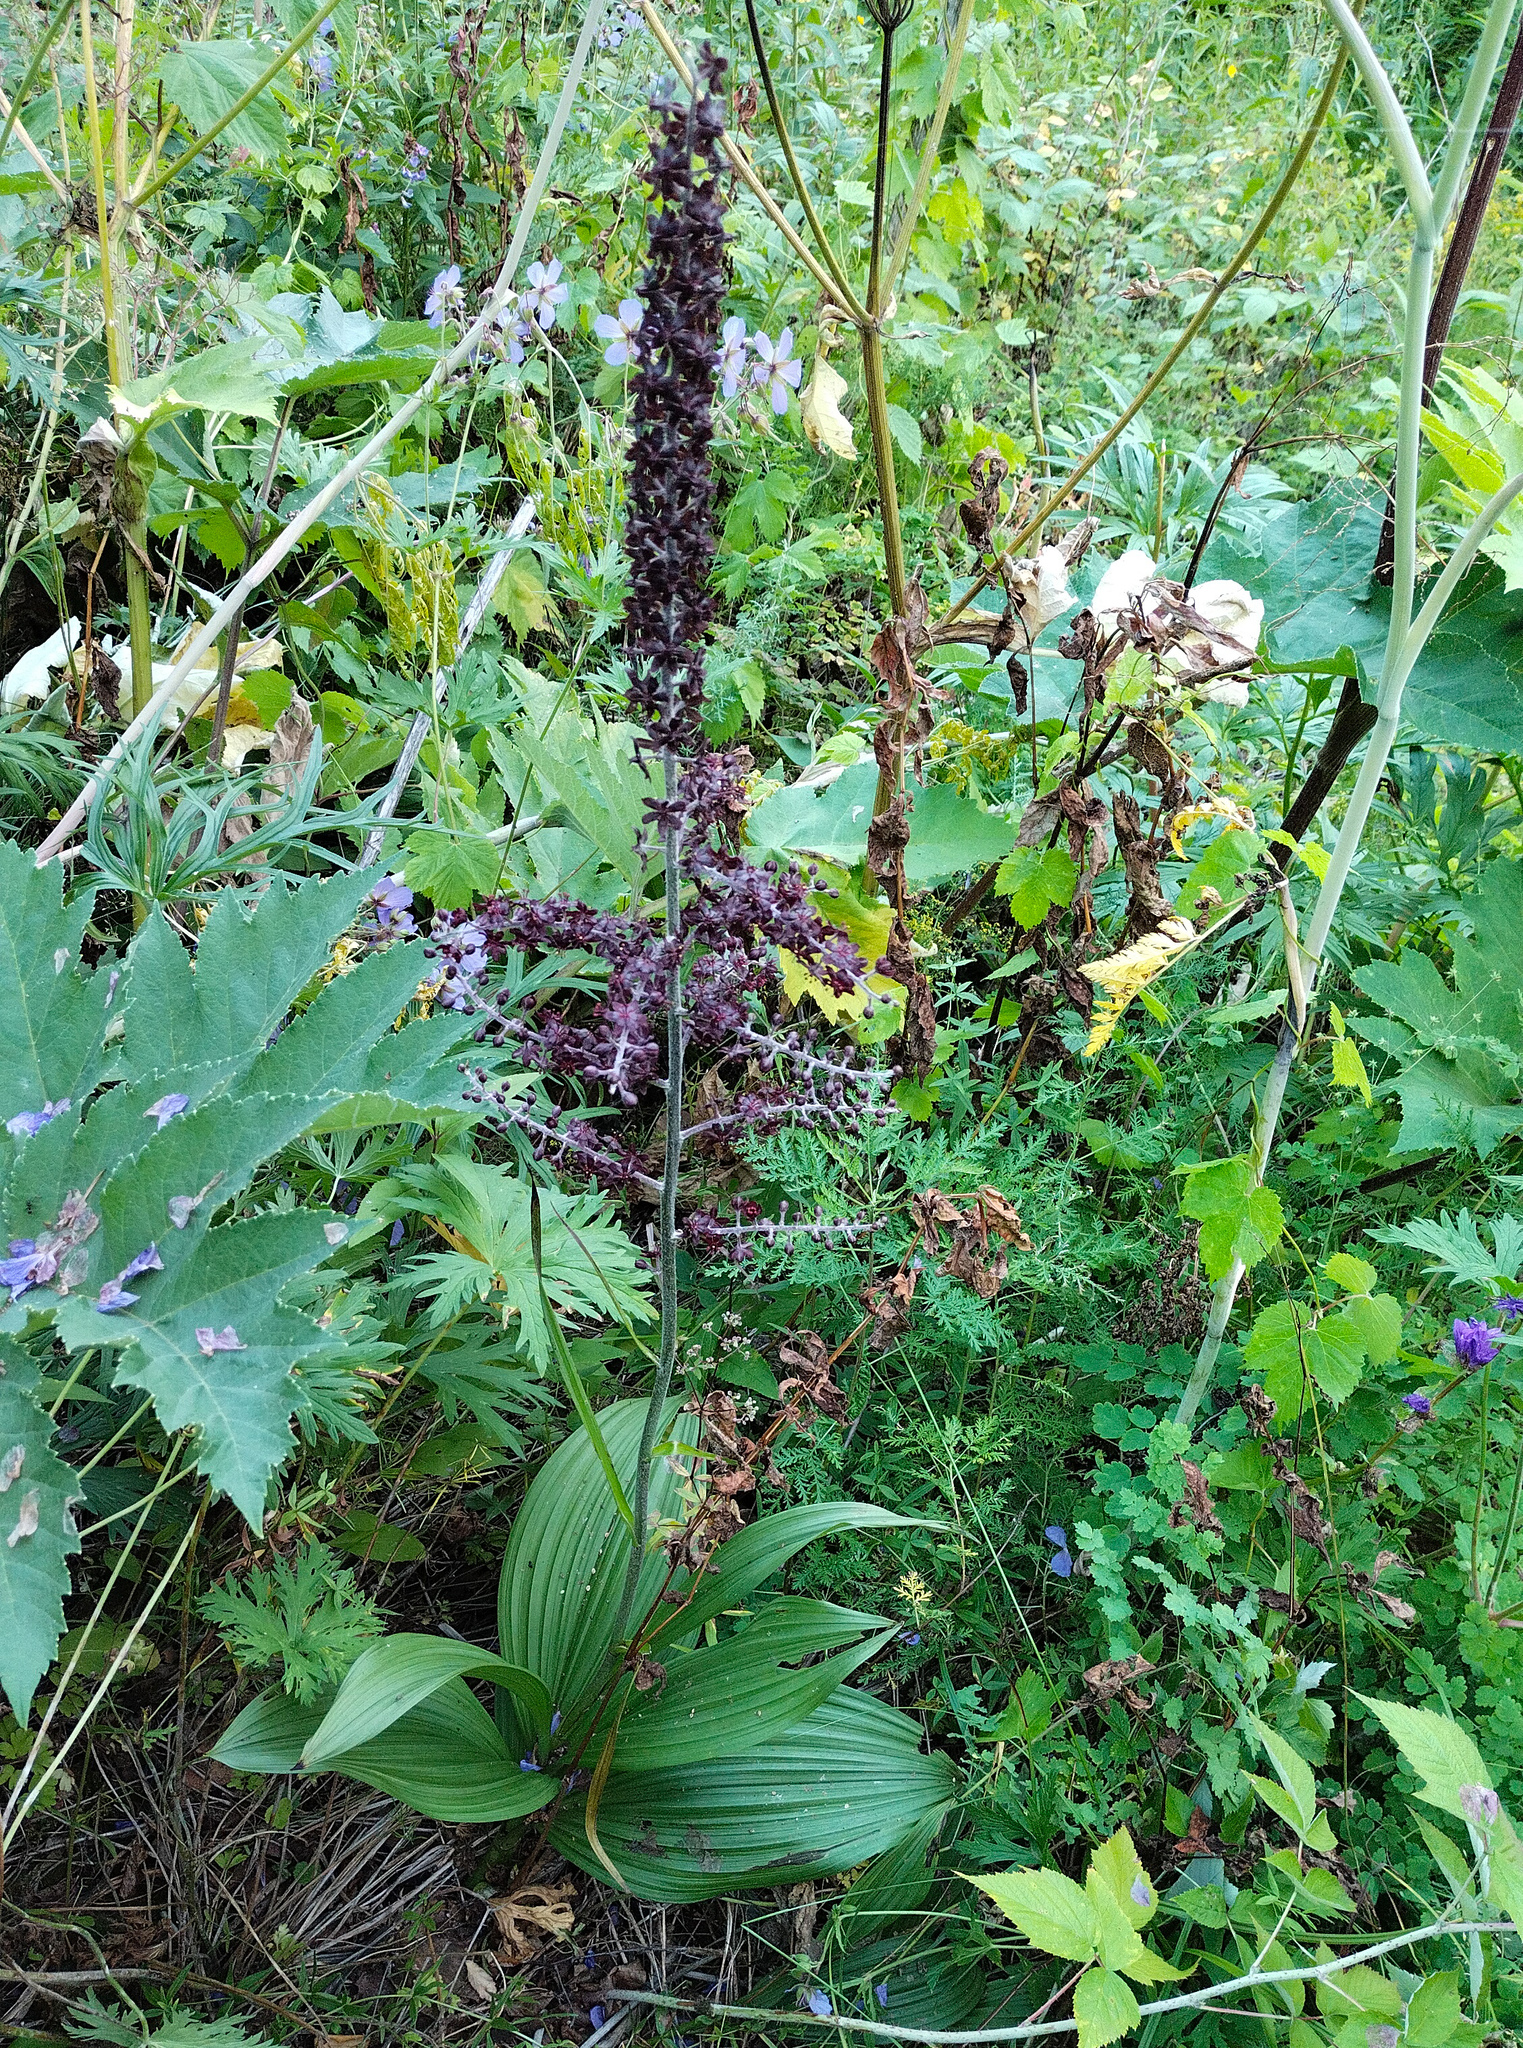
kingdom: Plantae
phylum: Tracheophyta
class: Liliopsida
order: Liliales
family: Melanthiaceae
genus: Veratrum
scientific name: Veratrum nigrum
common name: Black veratrum
